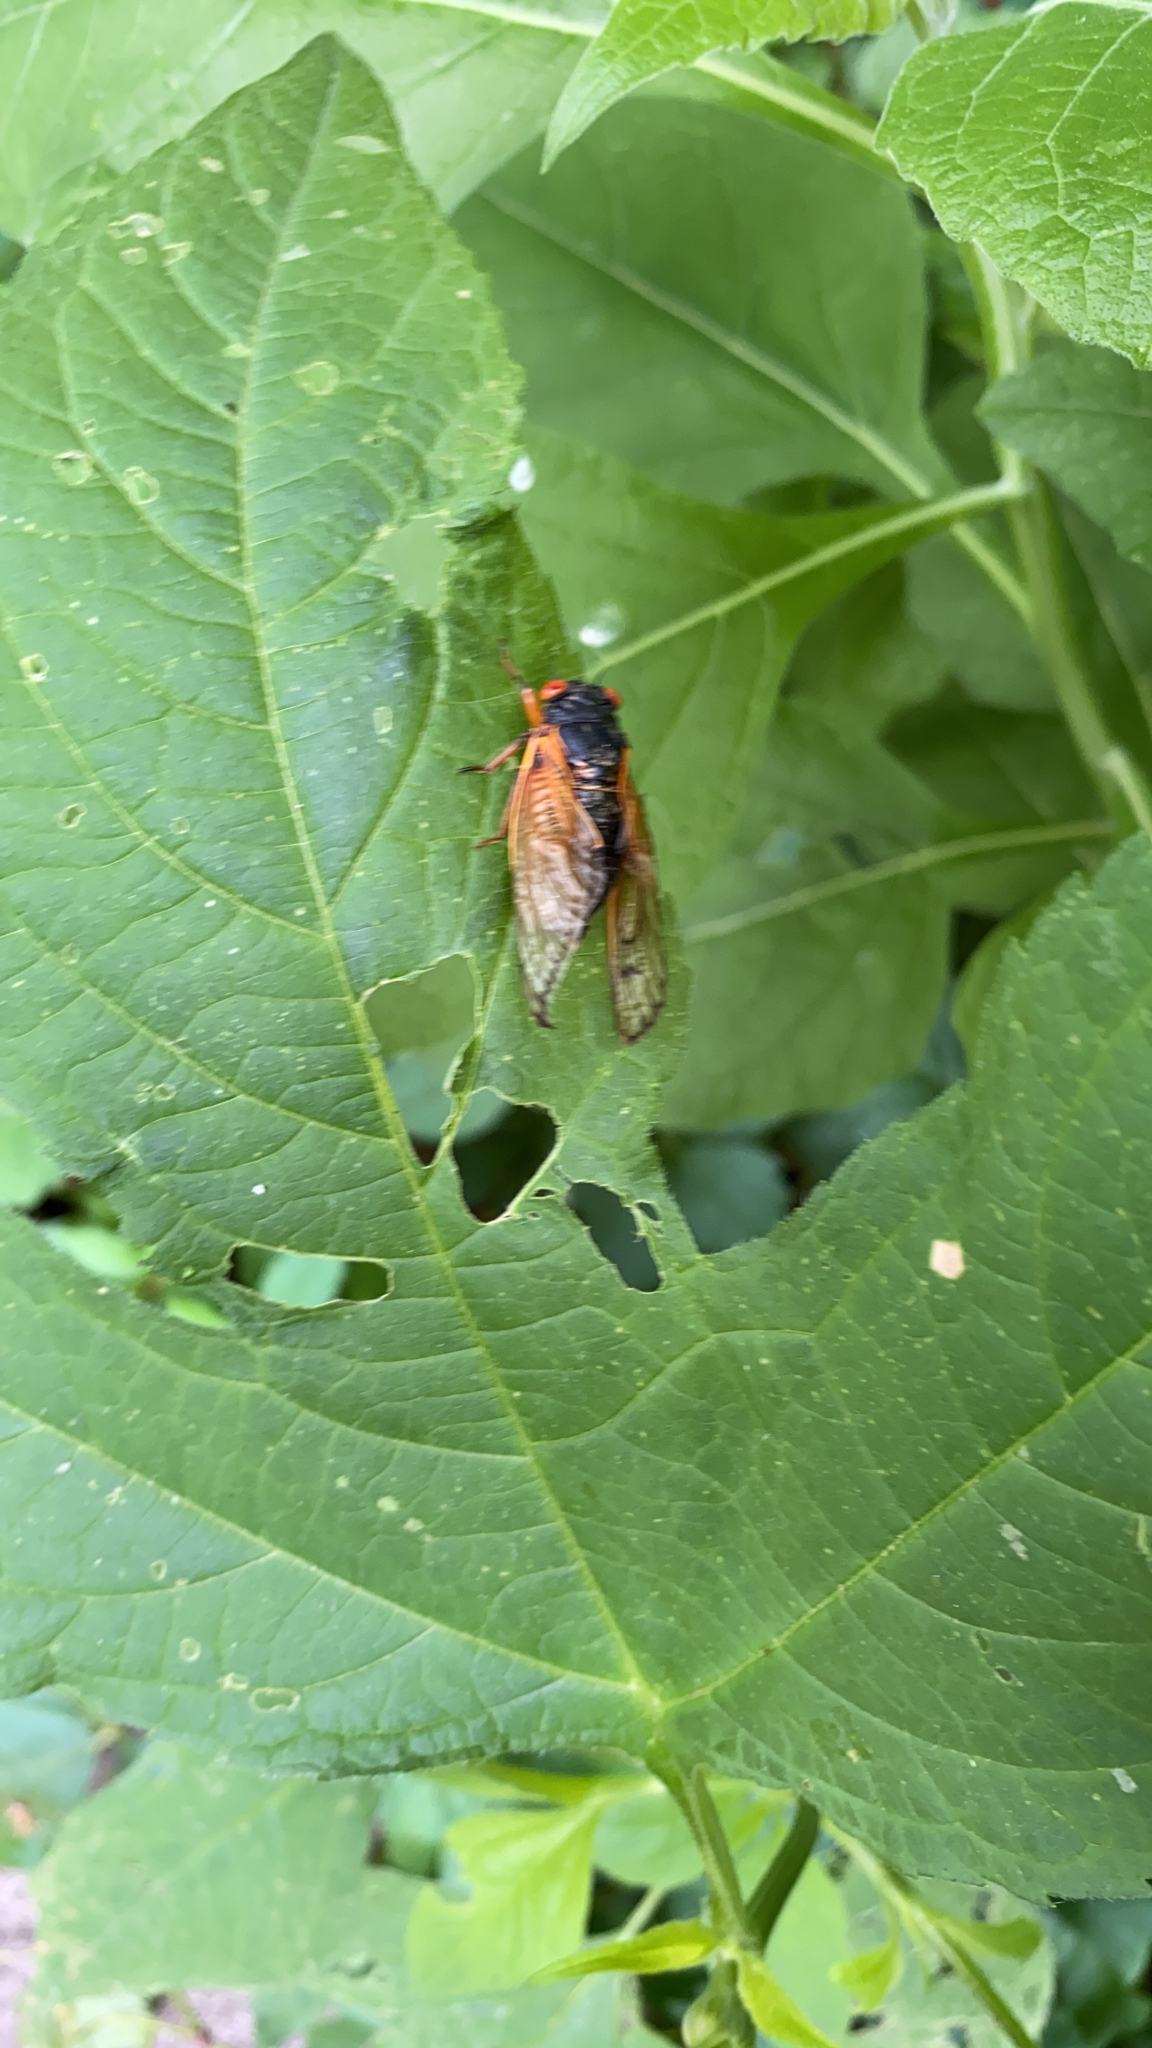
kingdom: Animalia
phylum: Arthropoda
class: Insecta
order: Hemiptera
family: Cicadidae
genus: Magicicada
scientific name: Magicicada
